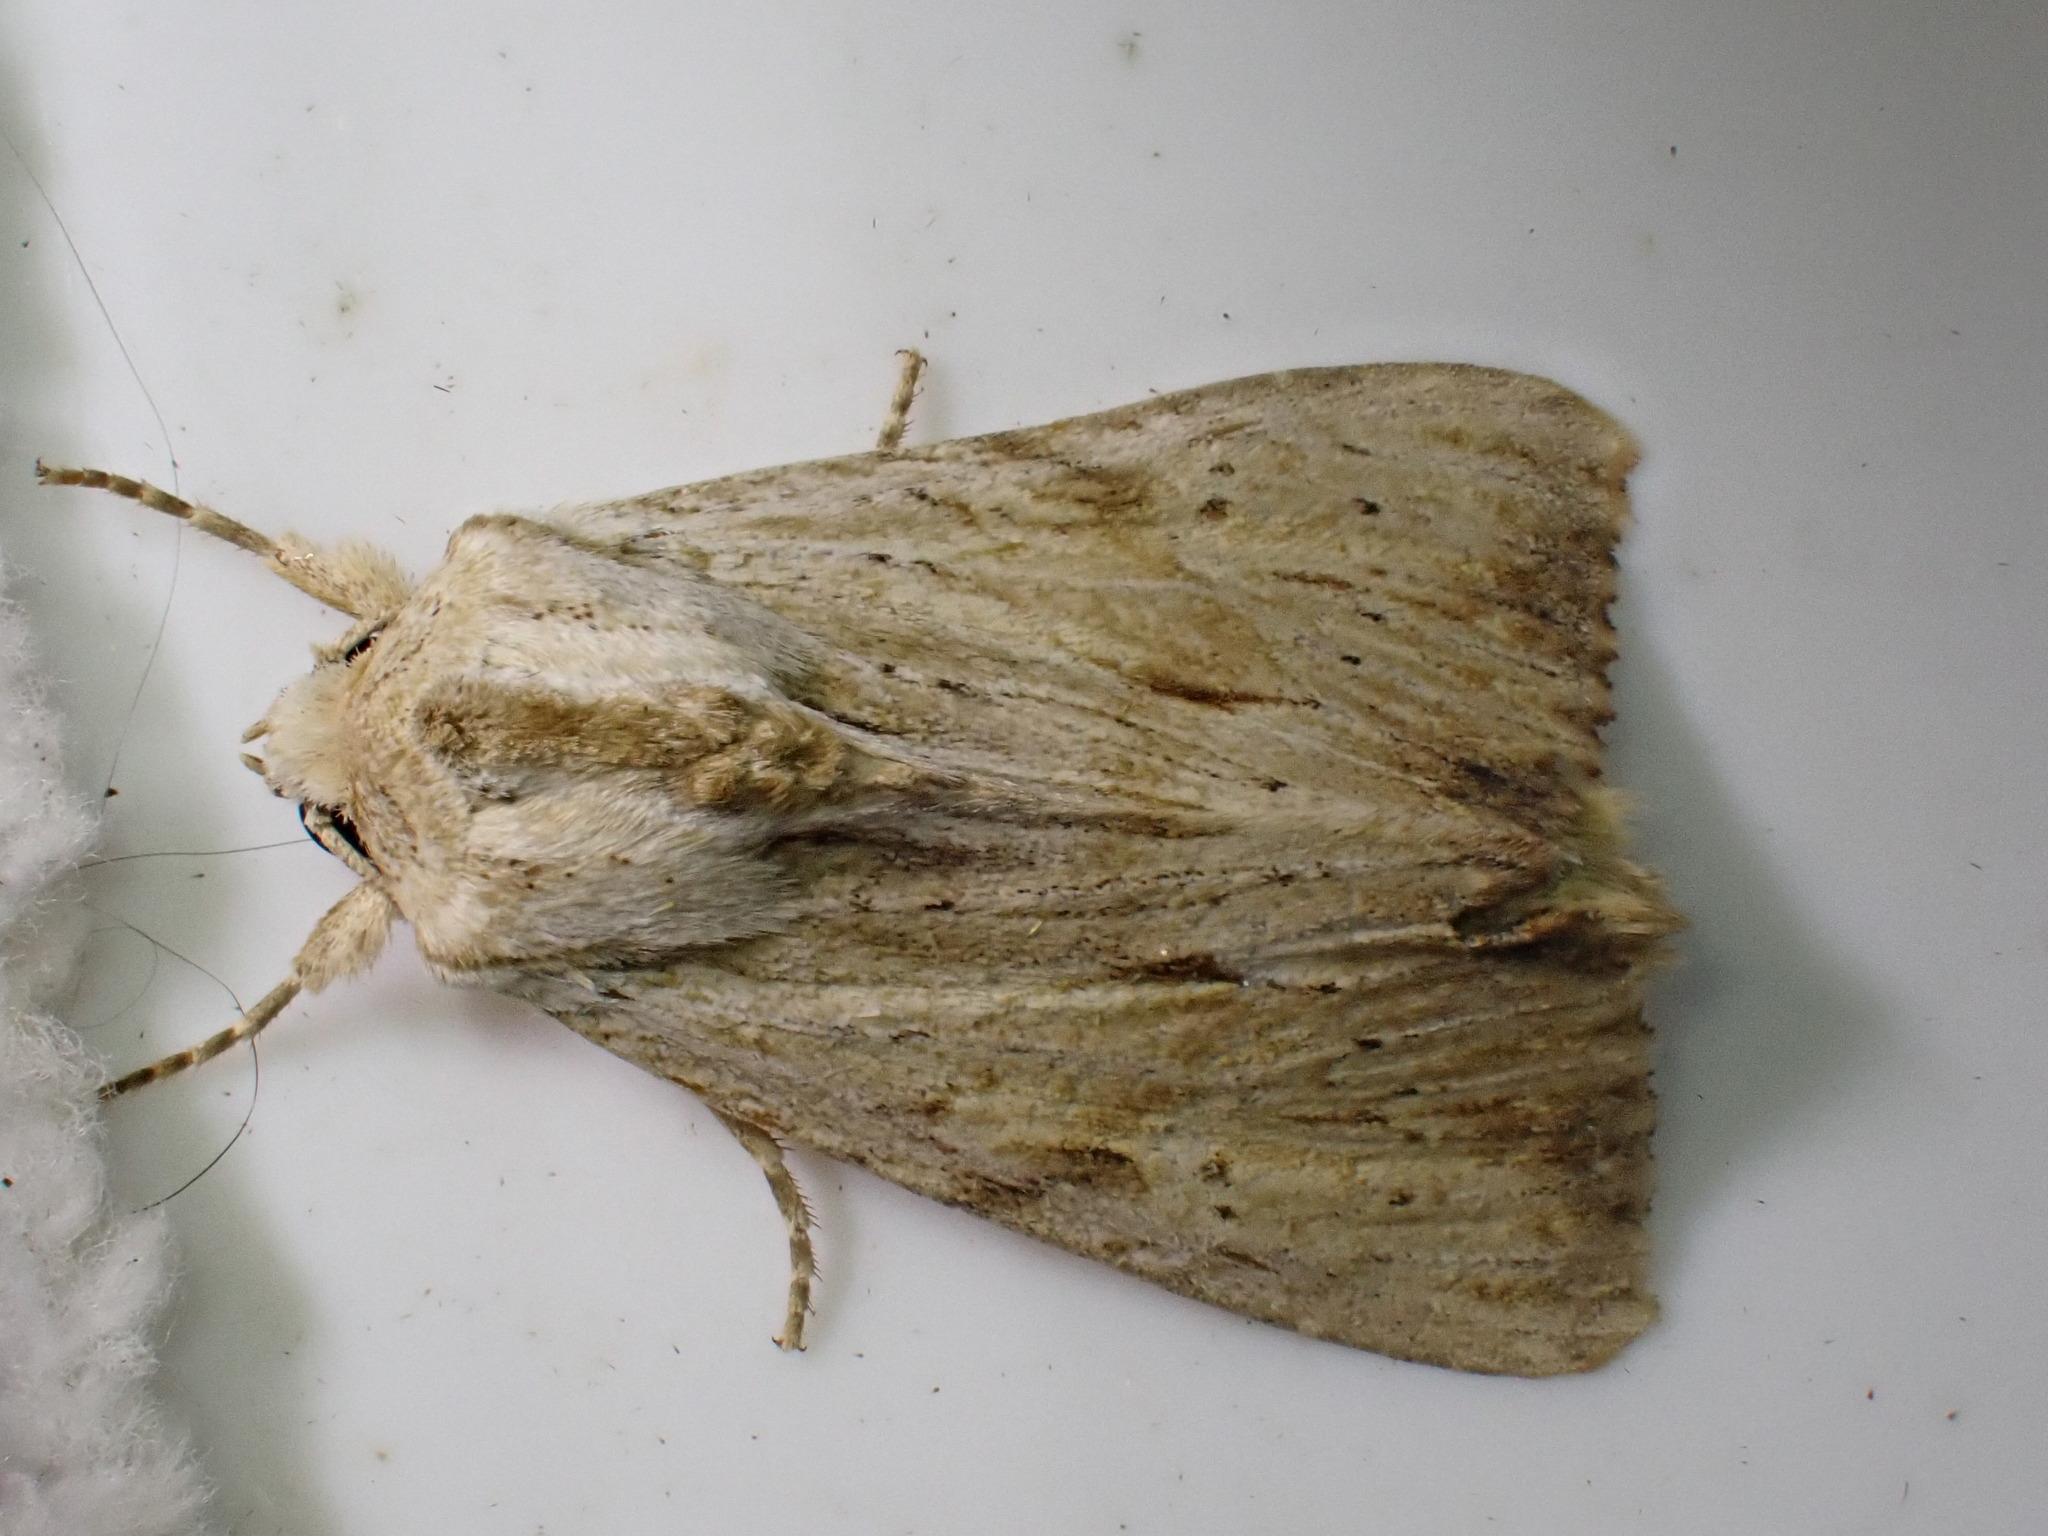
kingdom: Animalia
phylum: Arthropoda
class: Insecta
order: Lepidoptera
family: Noctuidae
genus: Apamea
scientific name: Apamea lithoxylaea
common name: Light arches
